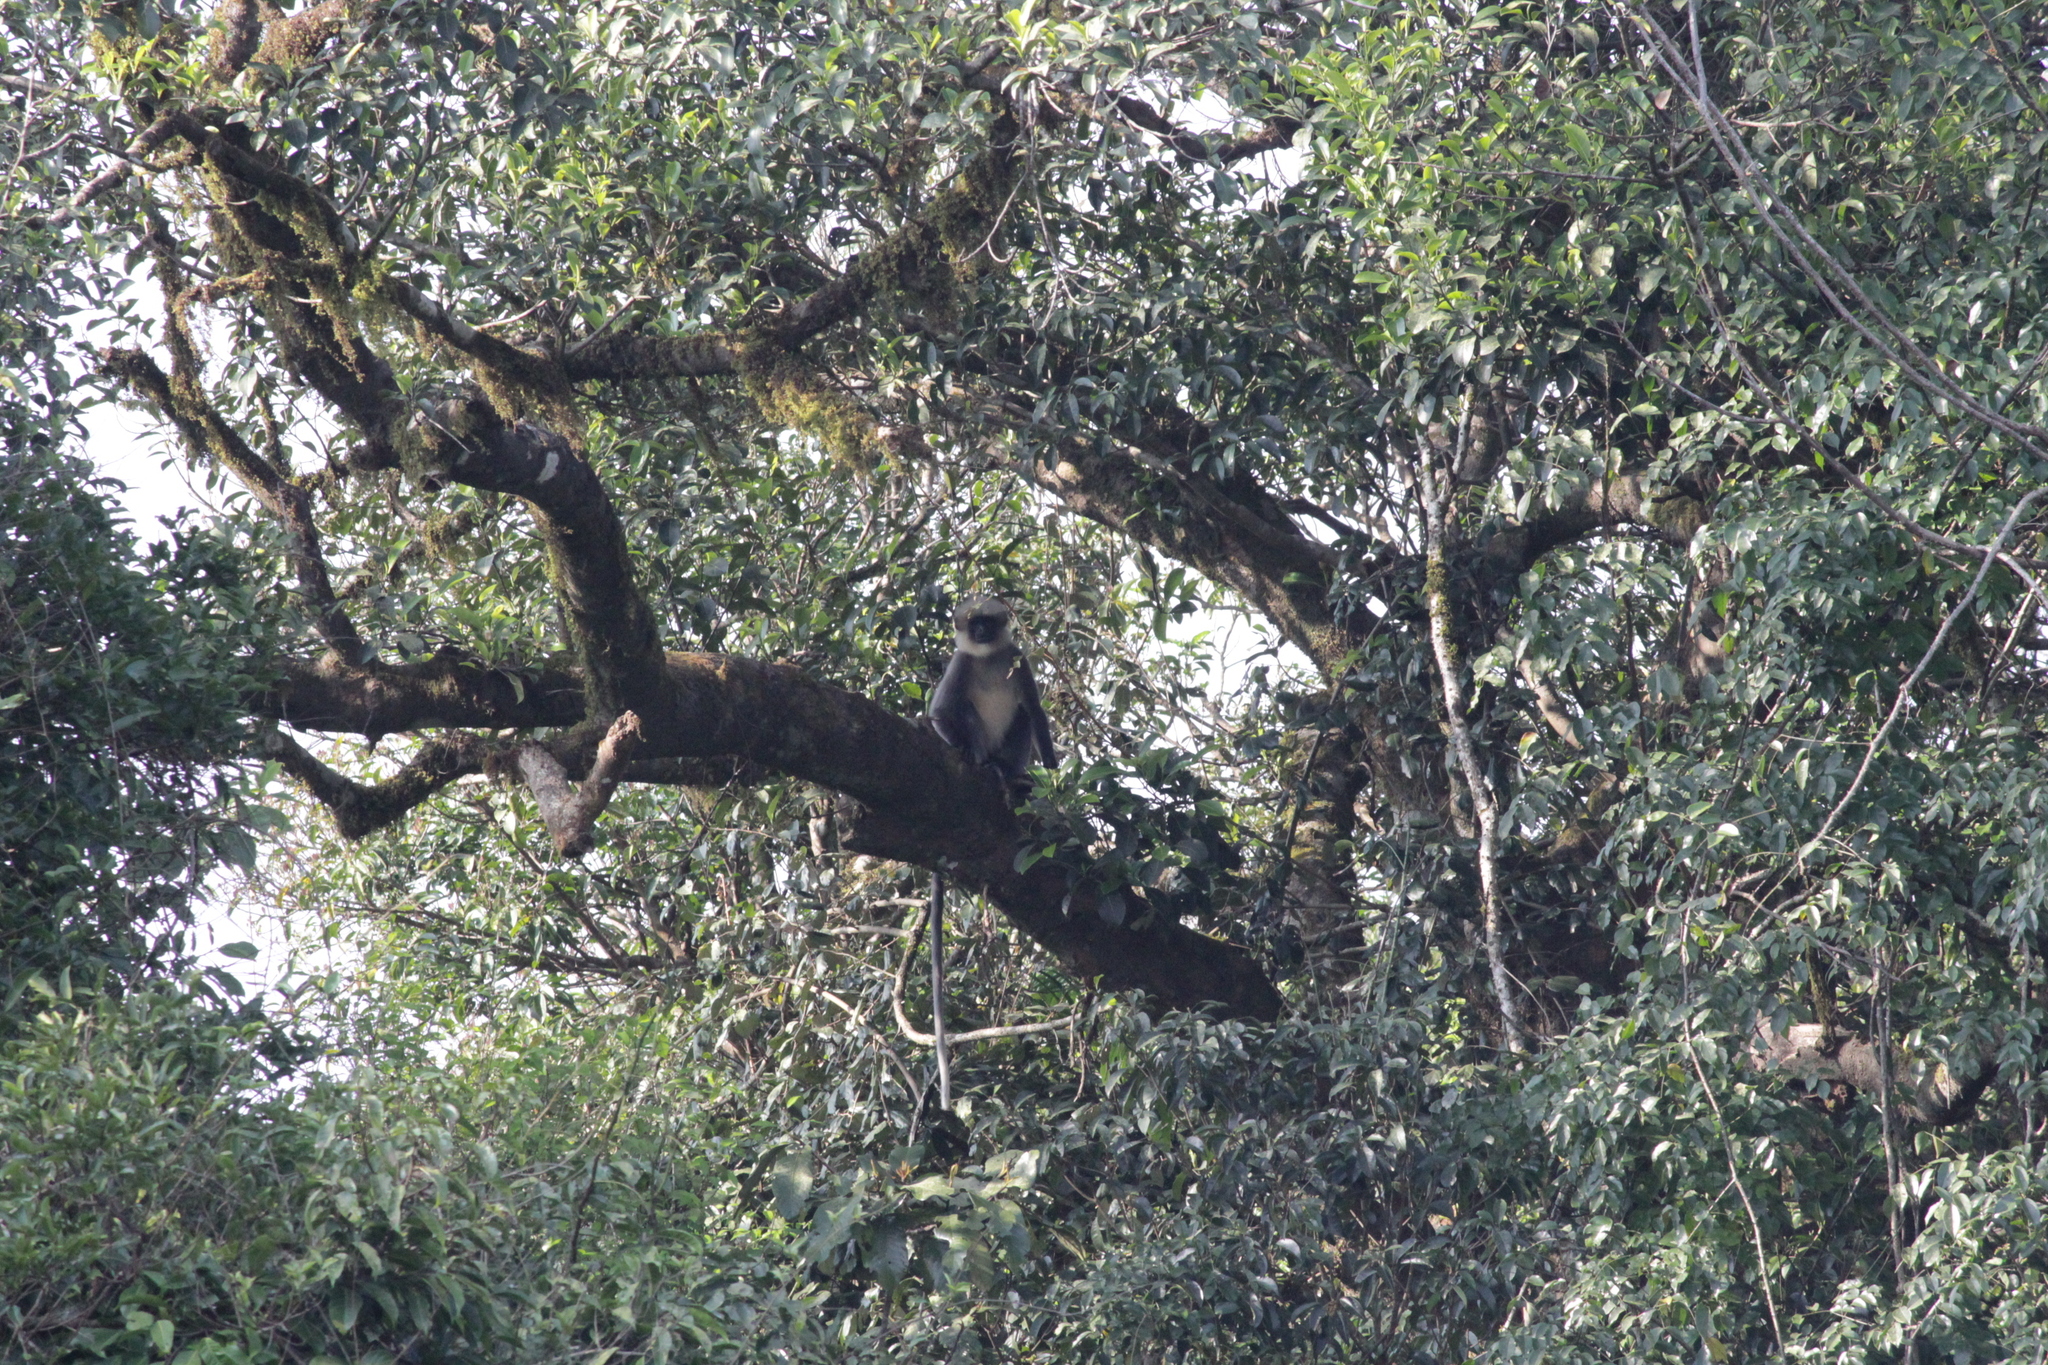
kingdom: Animalia
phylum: Chordata
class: Mammalia
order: Primates
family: Cercopithecidae
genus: Semnopithecus
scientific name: Semnopithecus hypoleucos
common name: Black-footed gray langur
